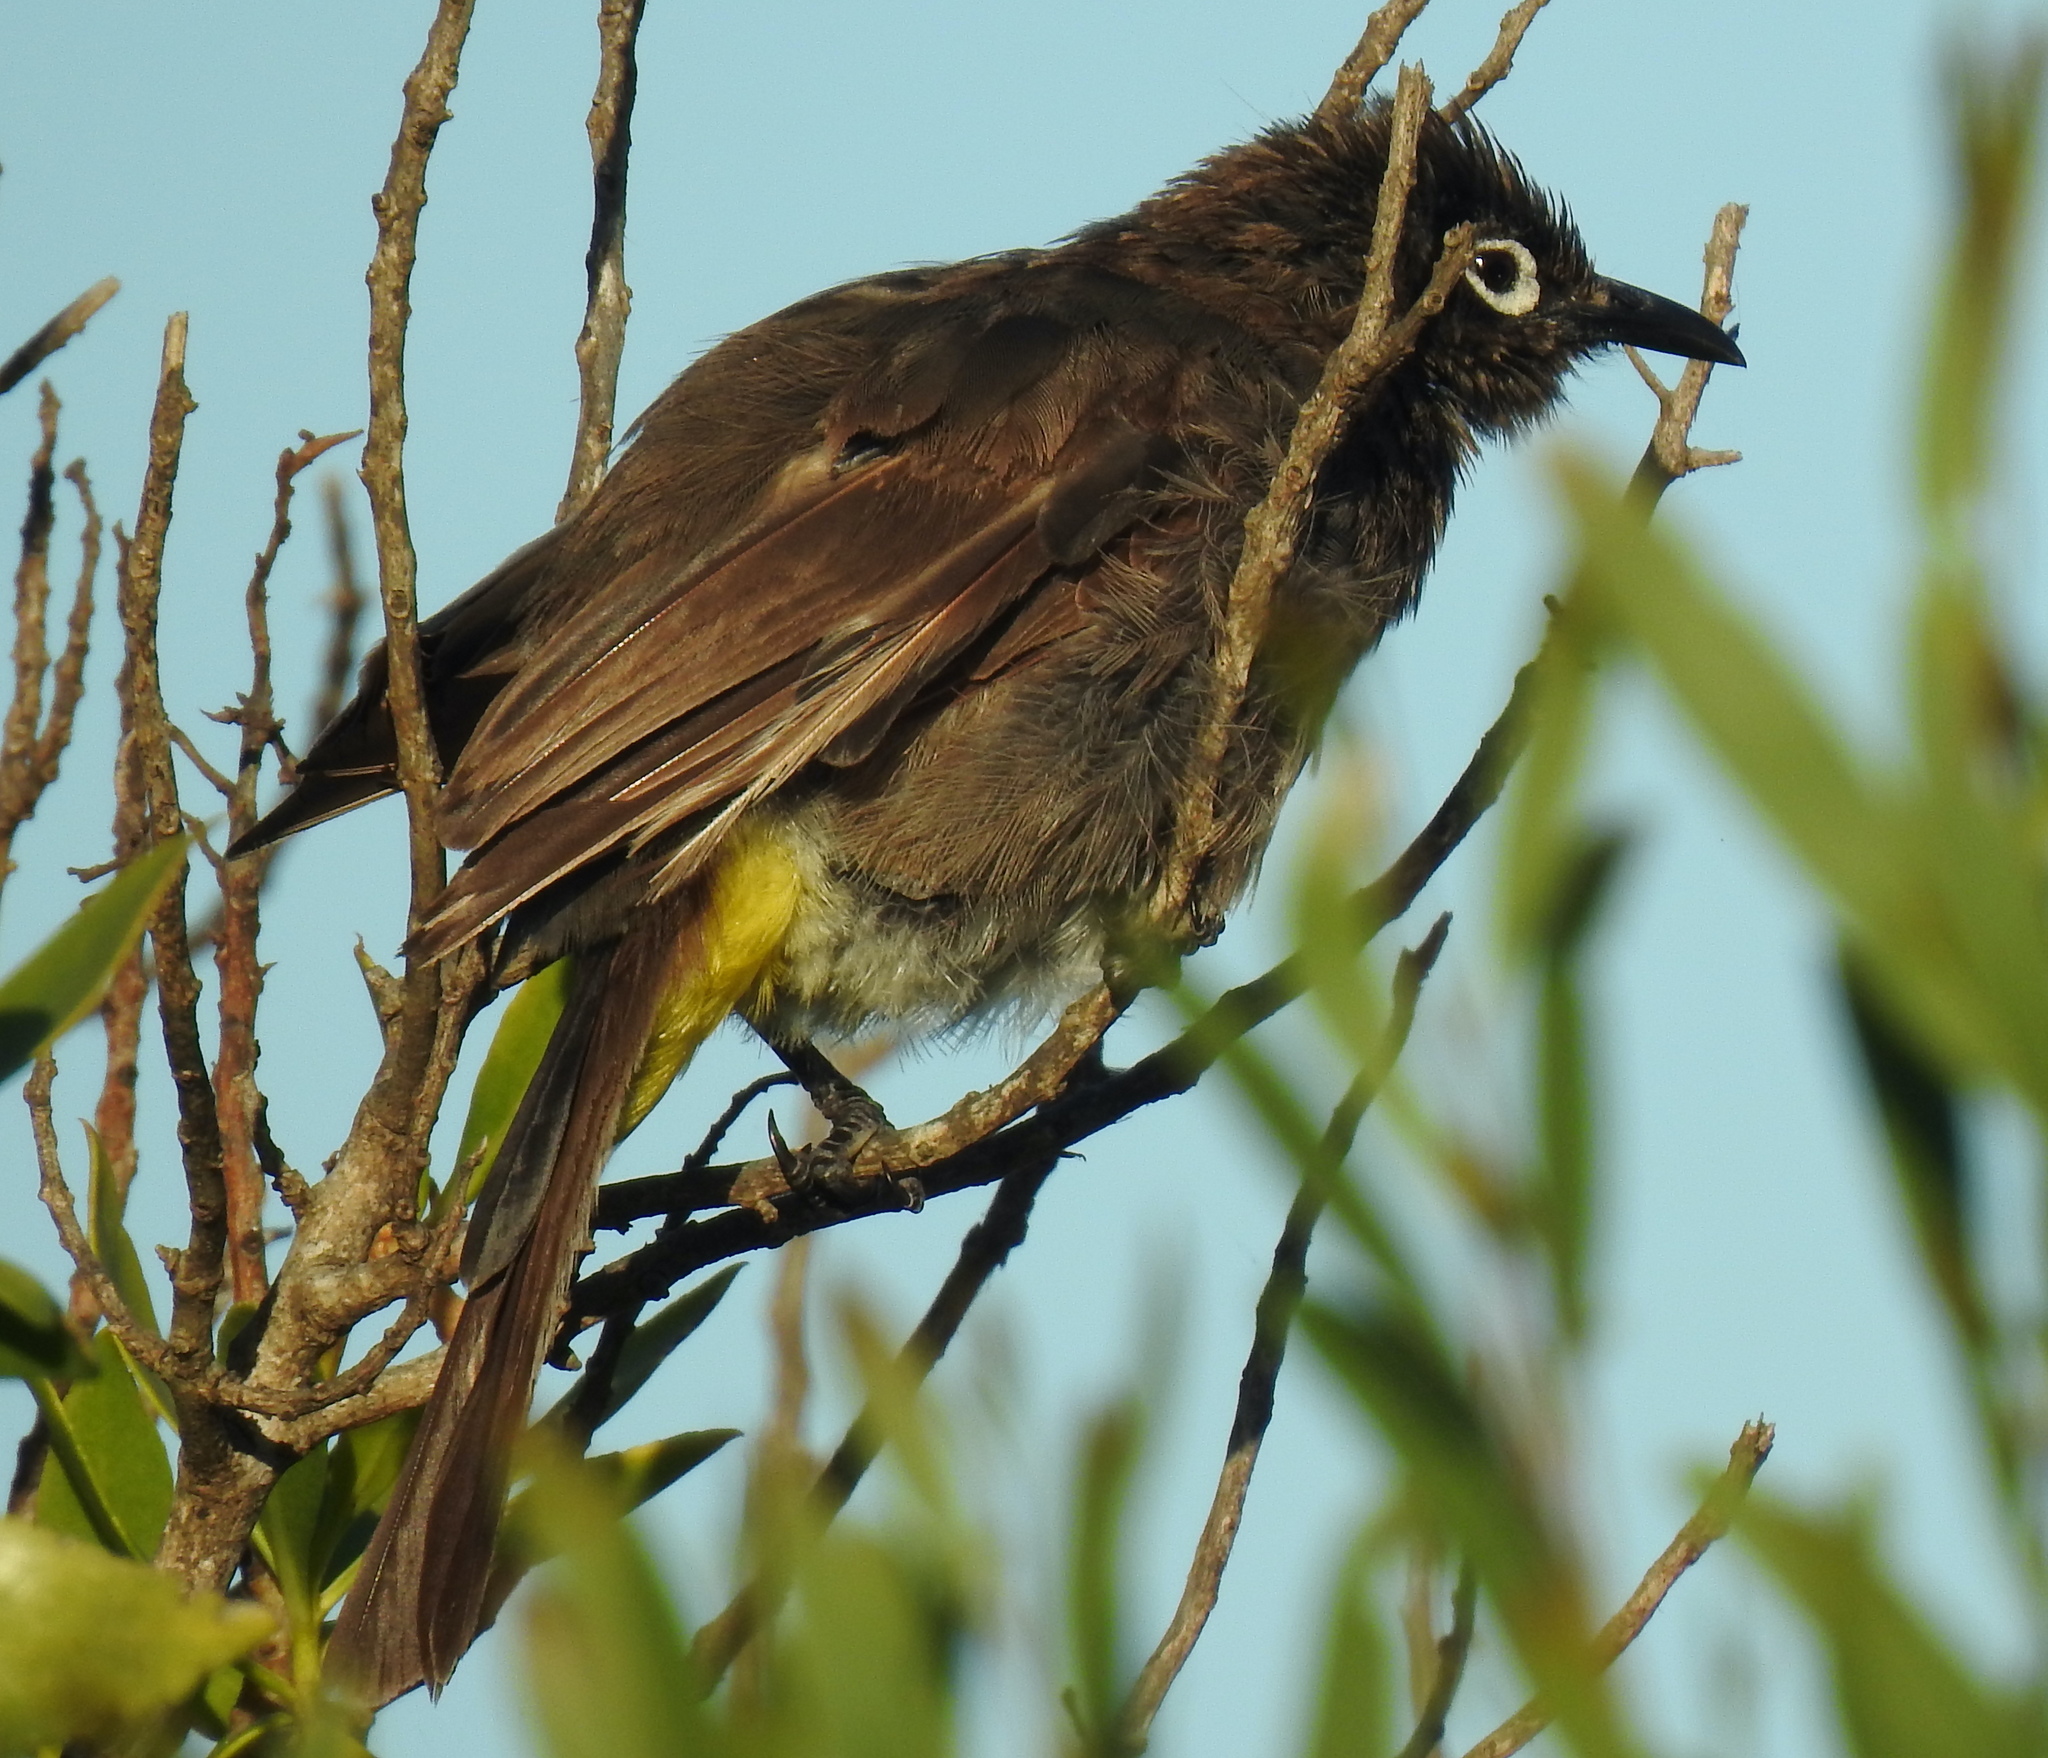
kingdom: Animalia
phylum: Chordata
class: Aves
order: Passeriformes
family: Pycnonotidae
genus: Pycnonotus
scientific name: Pycnonotus capensis
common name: Cape bulbul
